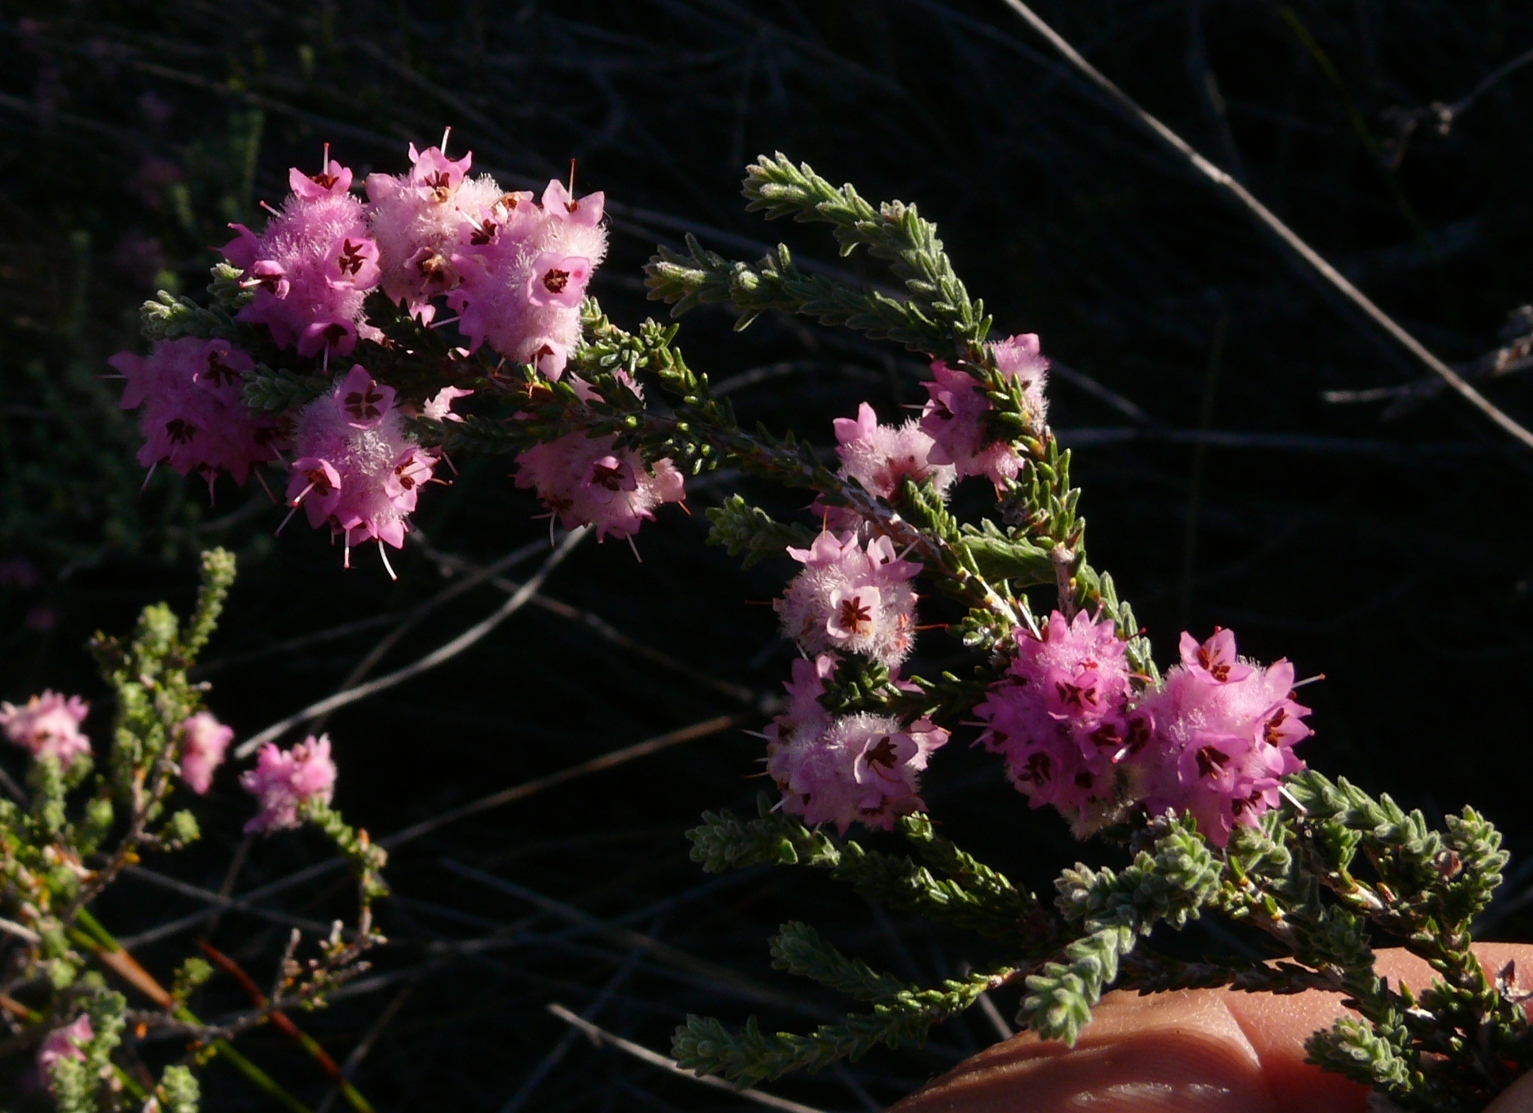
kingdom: Plantae
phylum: Tracheophyta
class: Magnoliopsida
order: Ericales
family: Ericaceae
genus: Erica
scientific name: Erica plumosa
